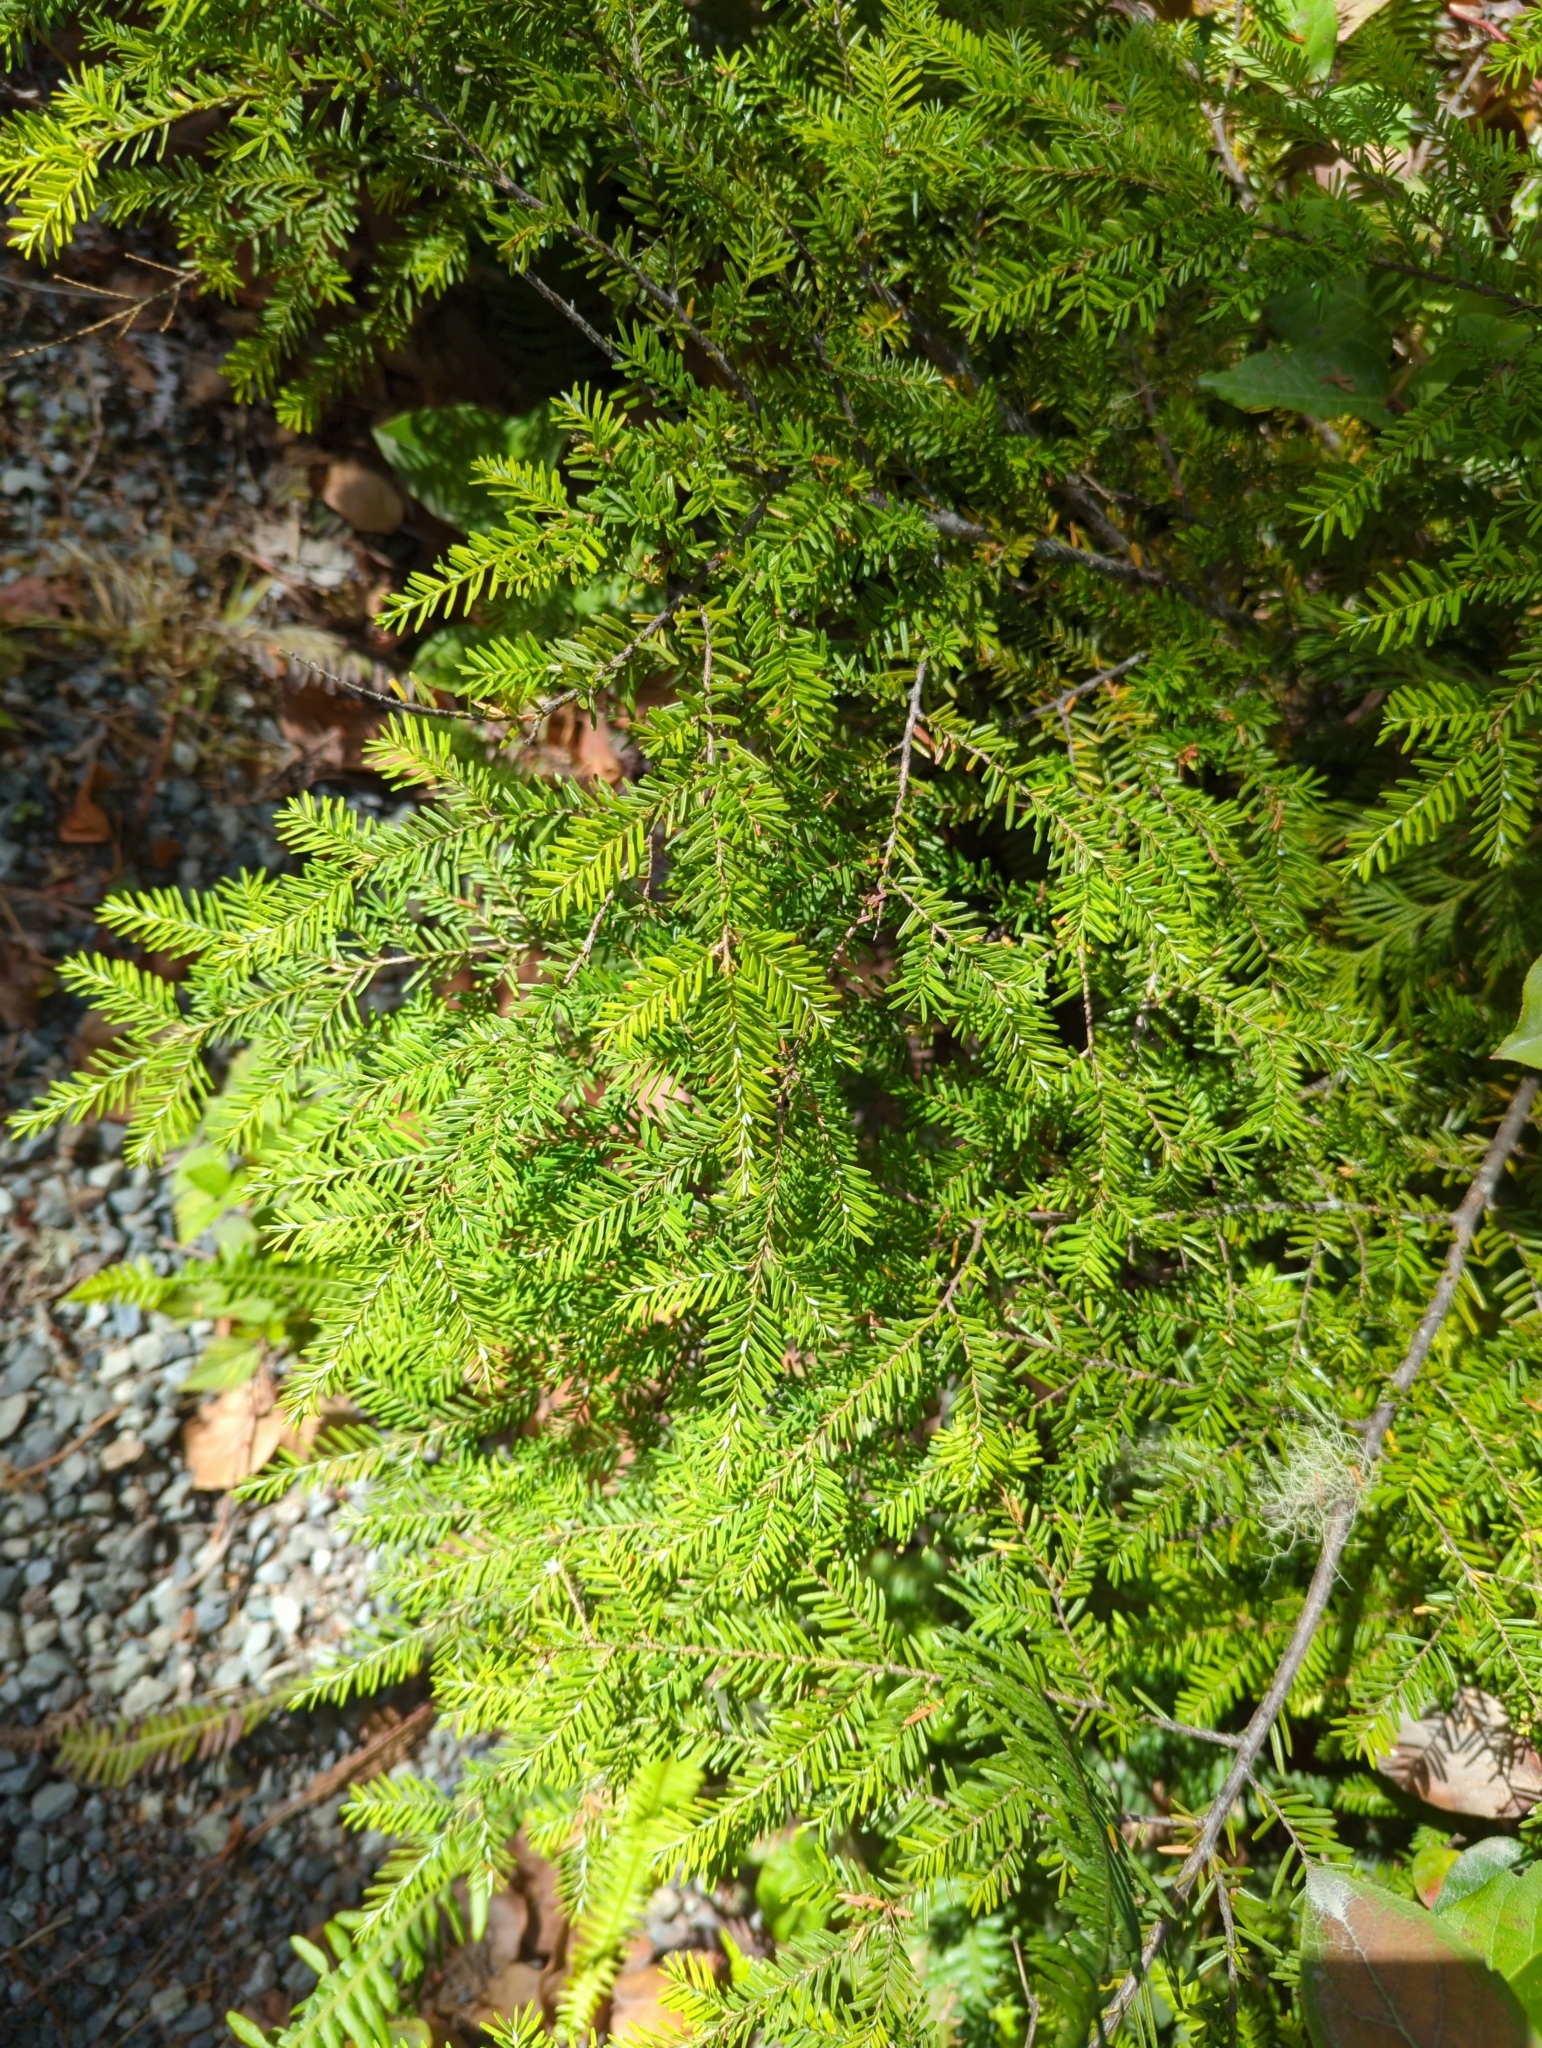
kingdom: Plantae
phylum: Tracheophyta
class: Pinopsida
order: Pinales
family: Pinaceae
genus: Tsuga
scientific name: Tsuga heterophylla
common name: Western hemlock
